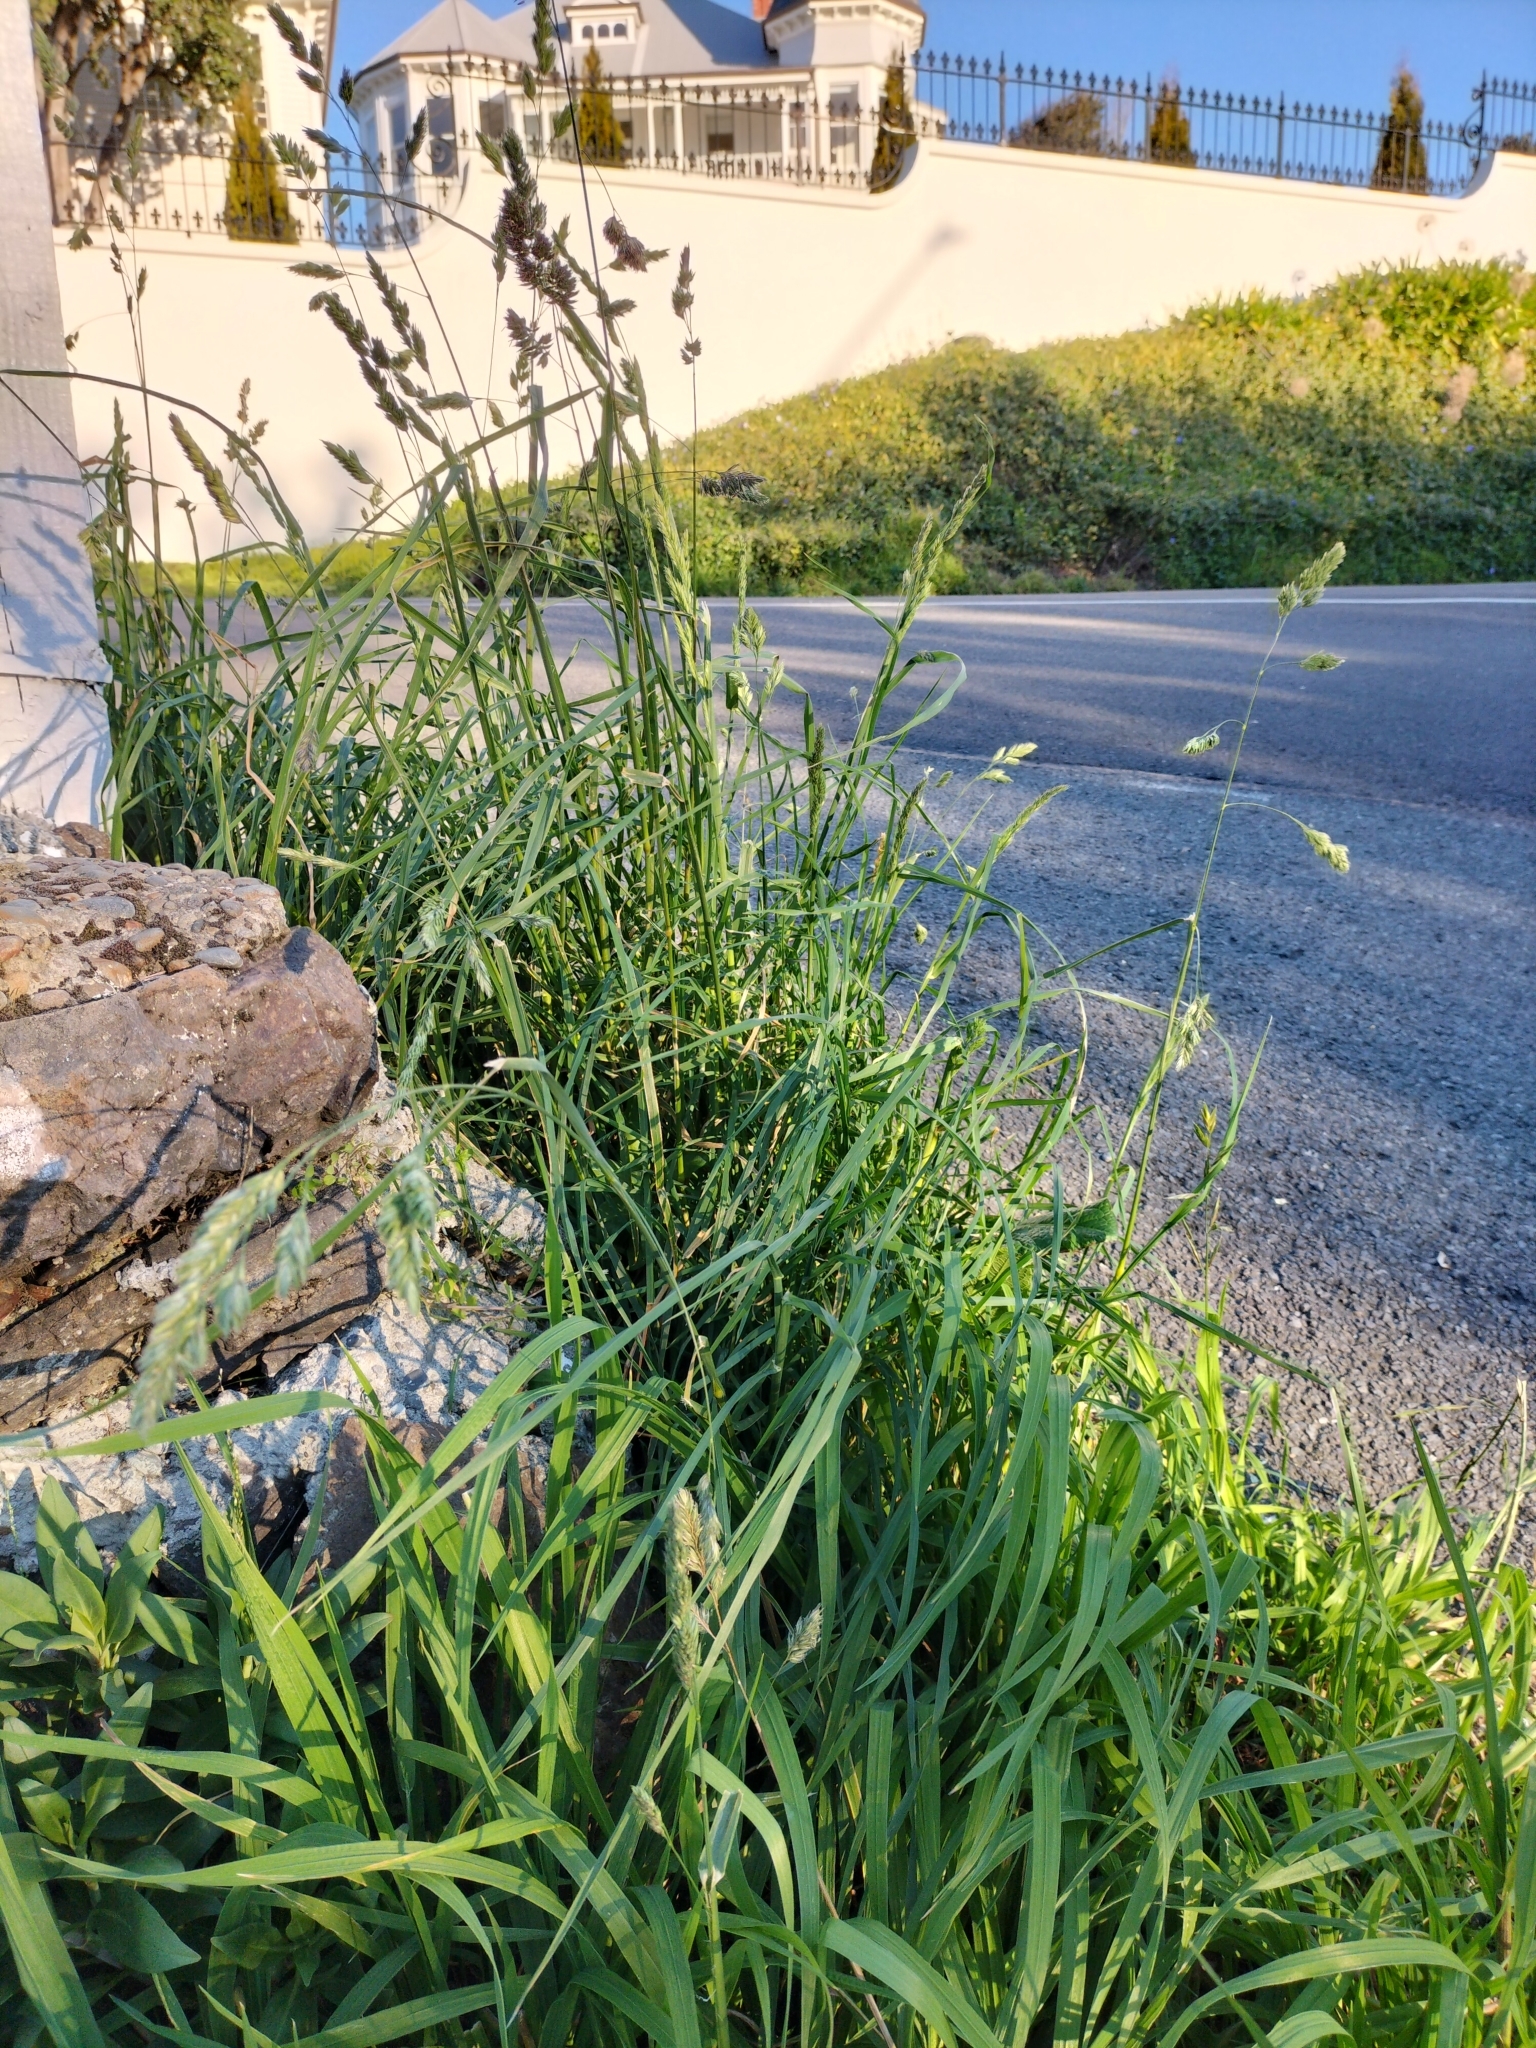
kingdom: Plantae
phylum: Tracheophyta
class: Liliopsida
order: Poales
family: Poaceae
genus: Dactylis
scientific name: Dactylis glomerata
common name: Orchardgrass
